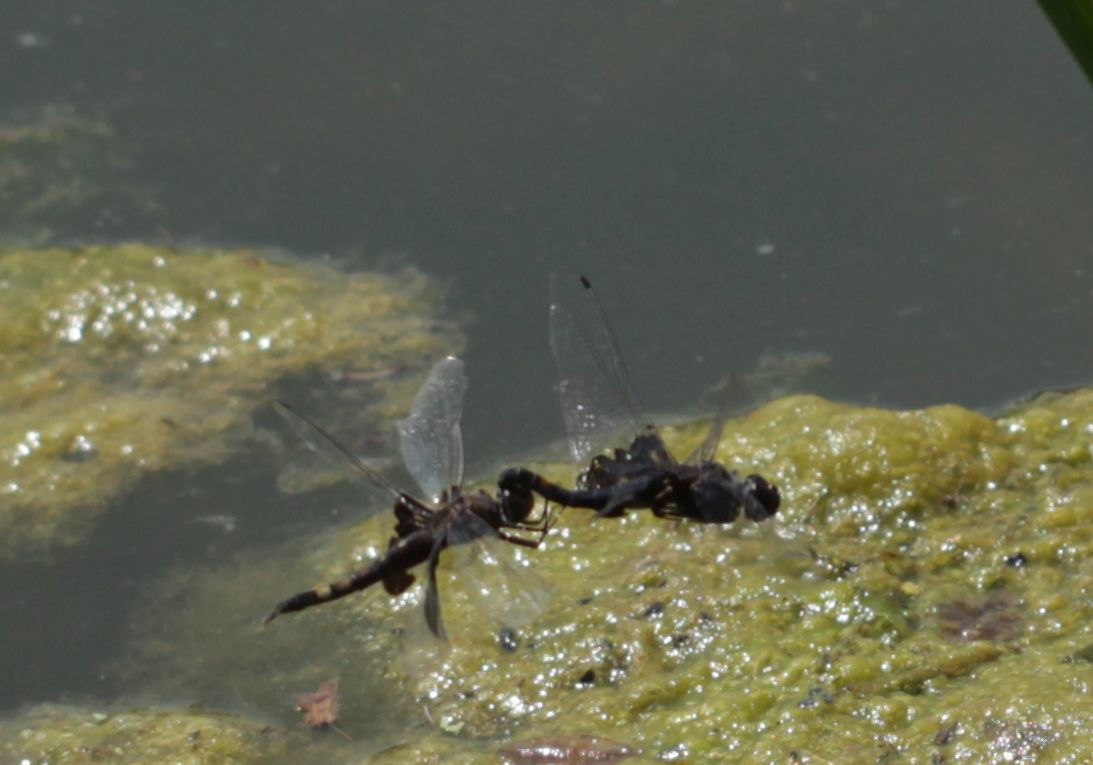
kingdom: Animalia
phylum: Arthropoda
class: Insecta
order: Odonata
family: Libellulidae
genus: Tramea
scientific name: Tramea lacerata
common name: Black saddlebags
